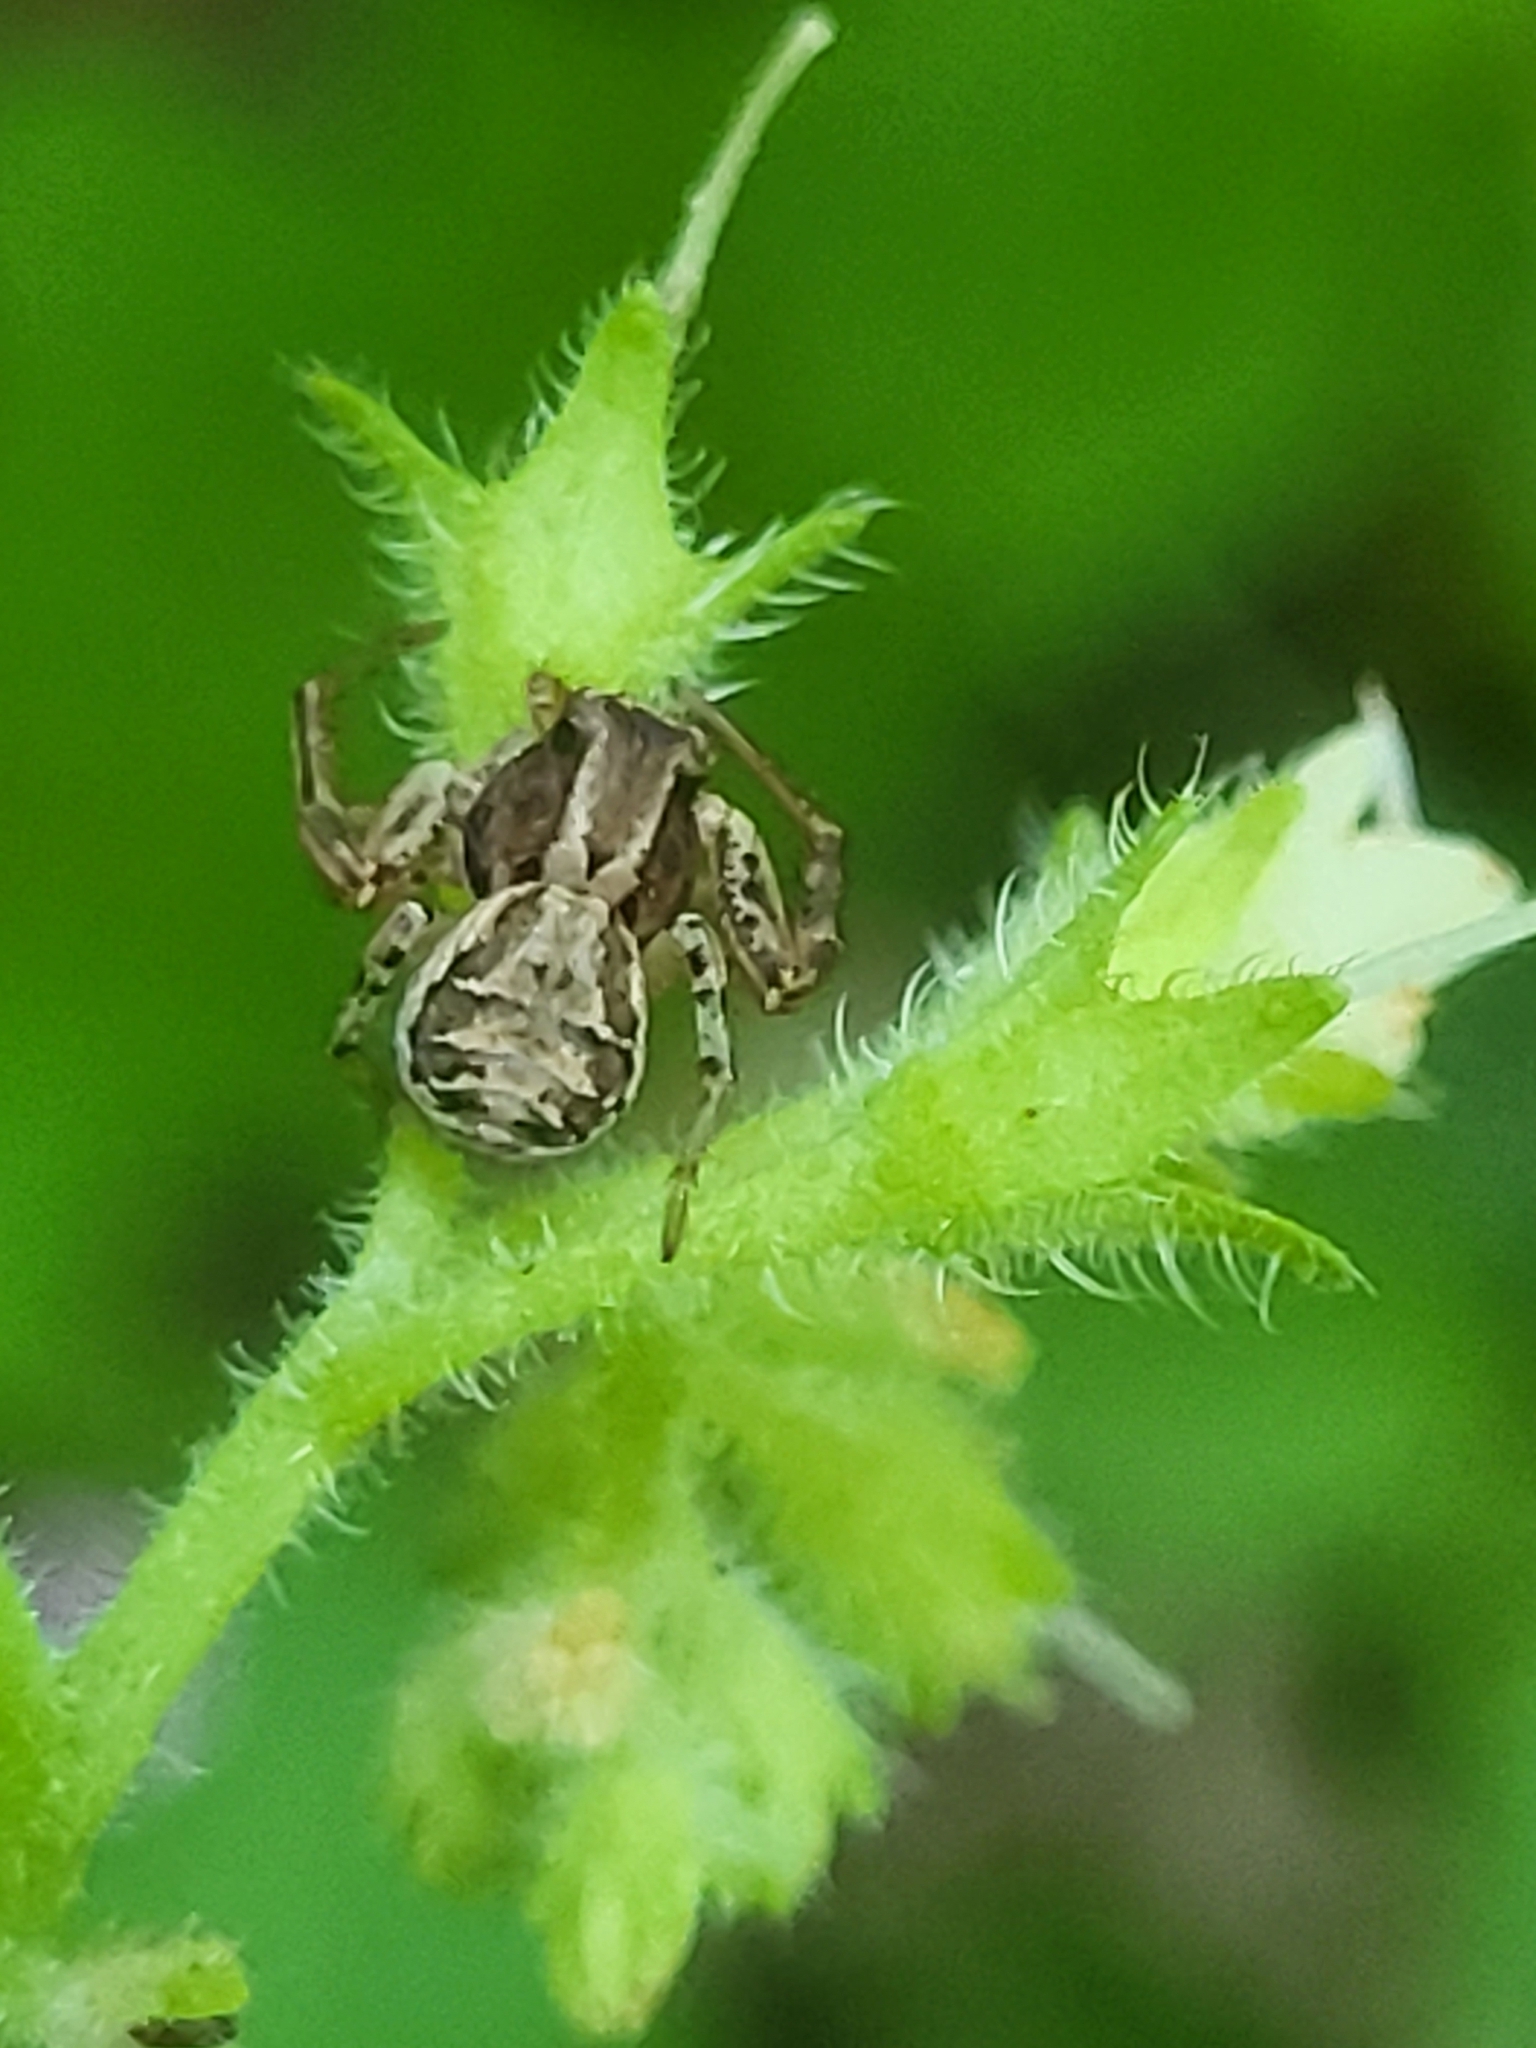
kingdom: Animalia
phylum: Arthropoda
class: Arachnida
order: Araneae
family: Thomisidae
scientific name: Thomisidae
